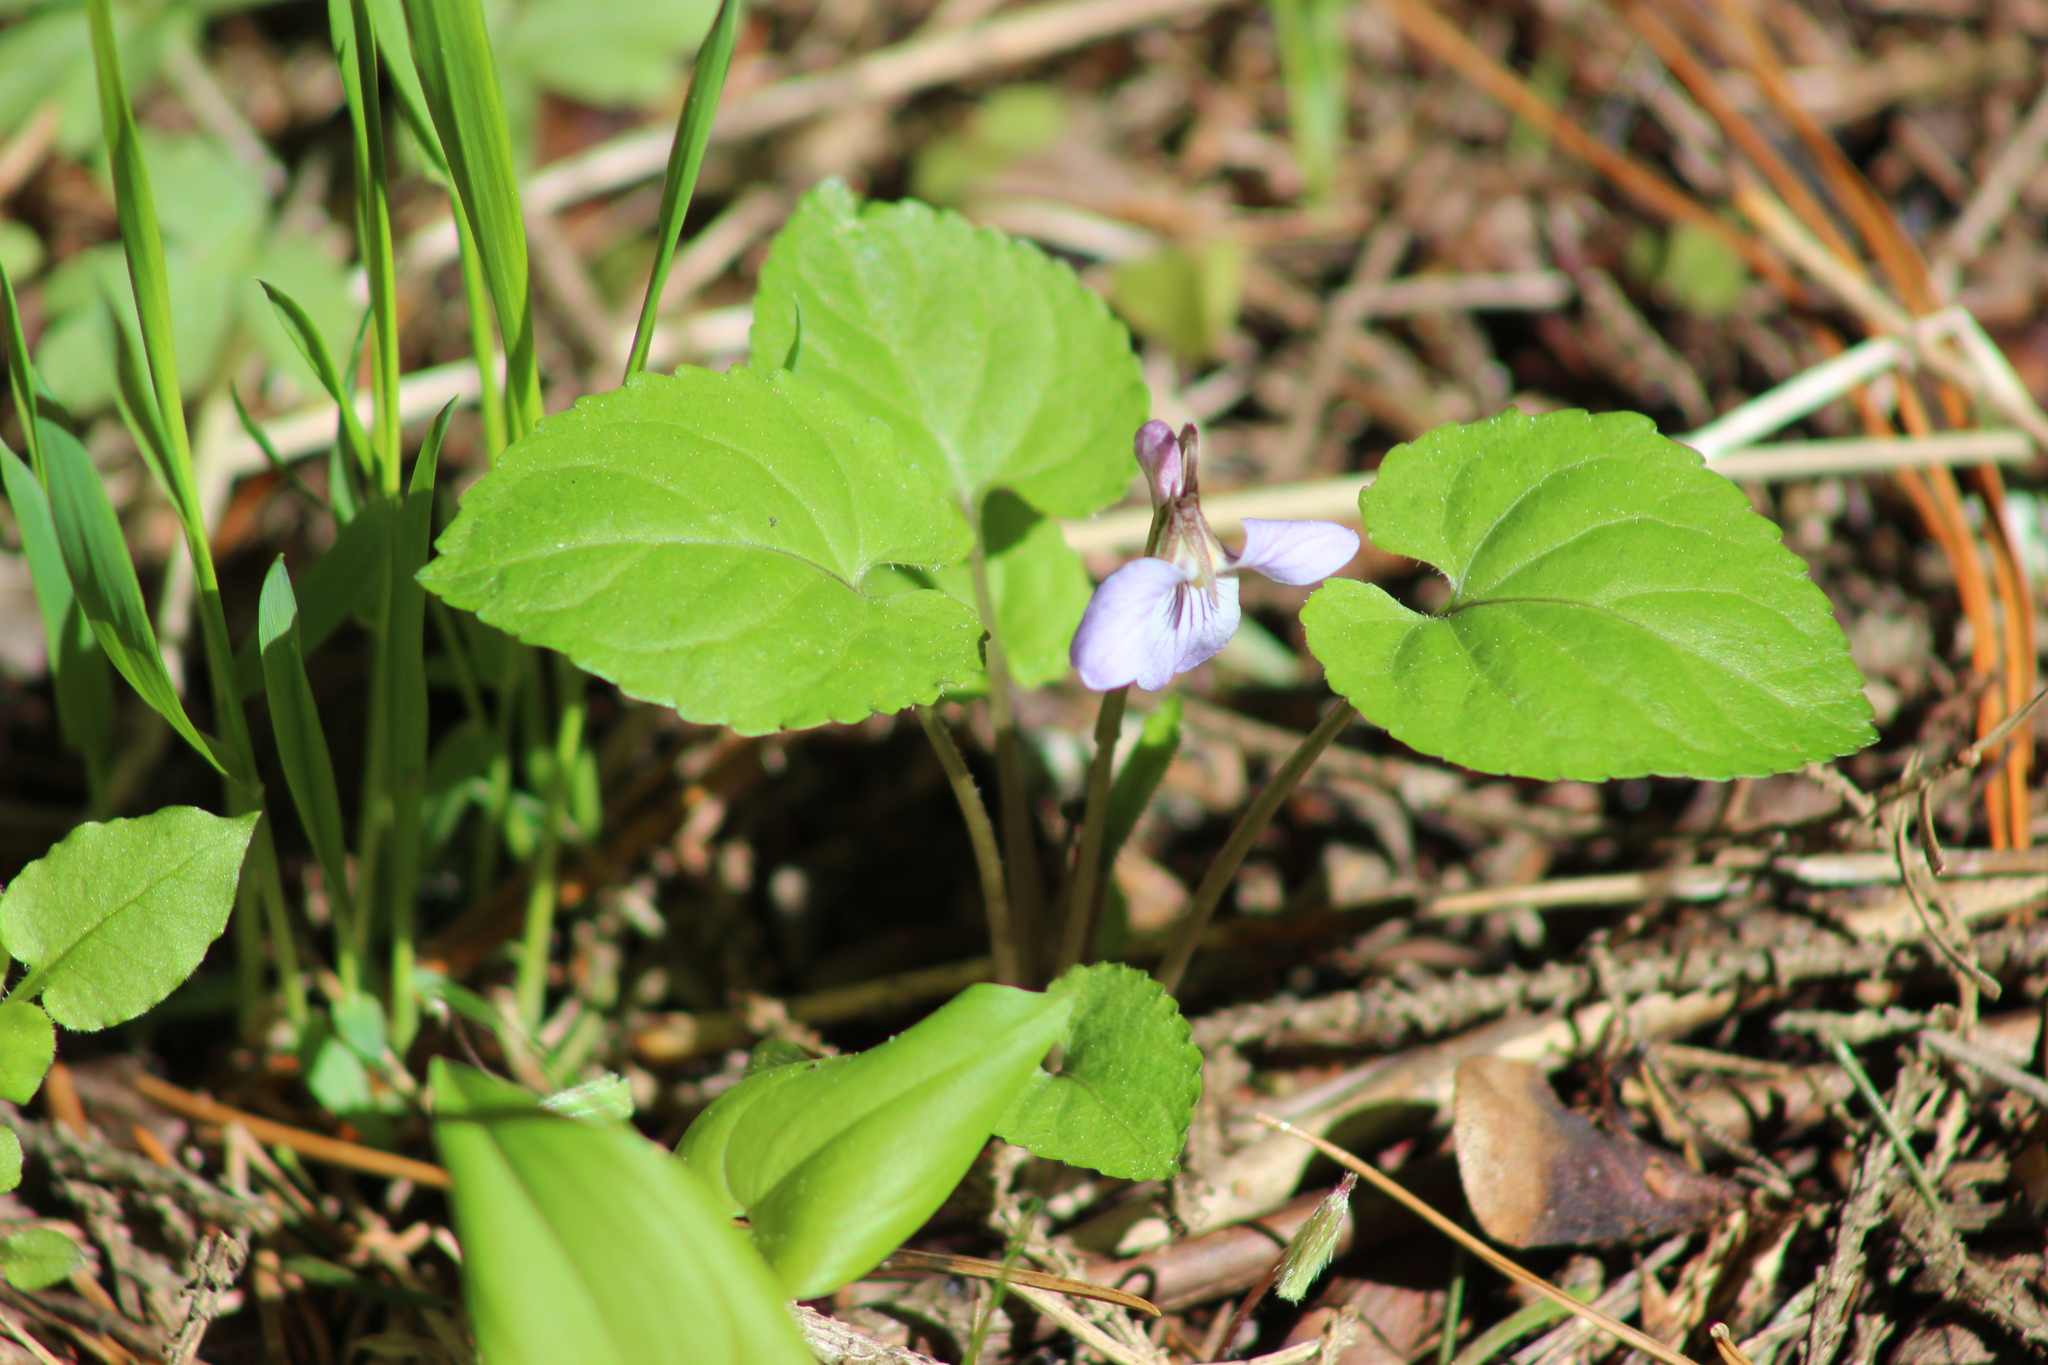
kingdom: Plantae
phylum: Tracheophyta
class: Magnoliopsida
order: Malpighiales
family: Violaceae
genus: Viola
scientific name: Viola selkirkii
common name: Selkirk's violet
